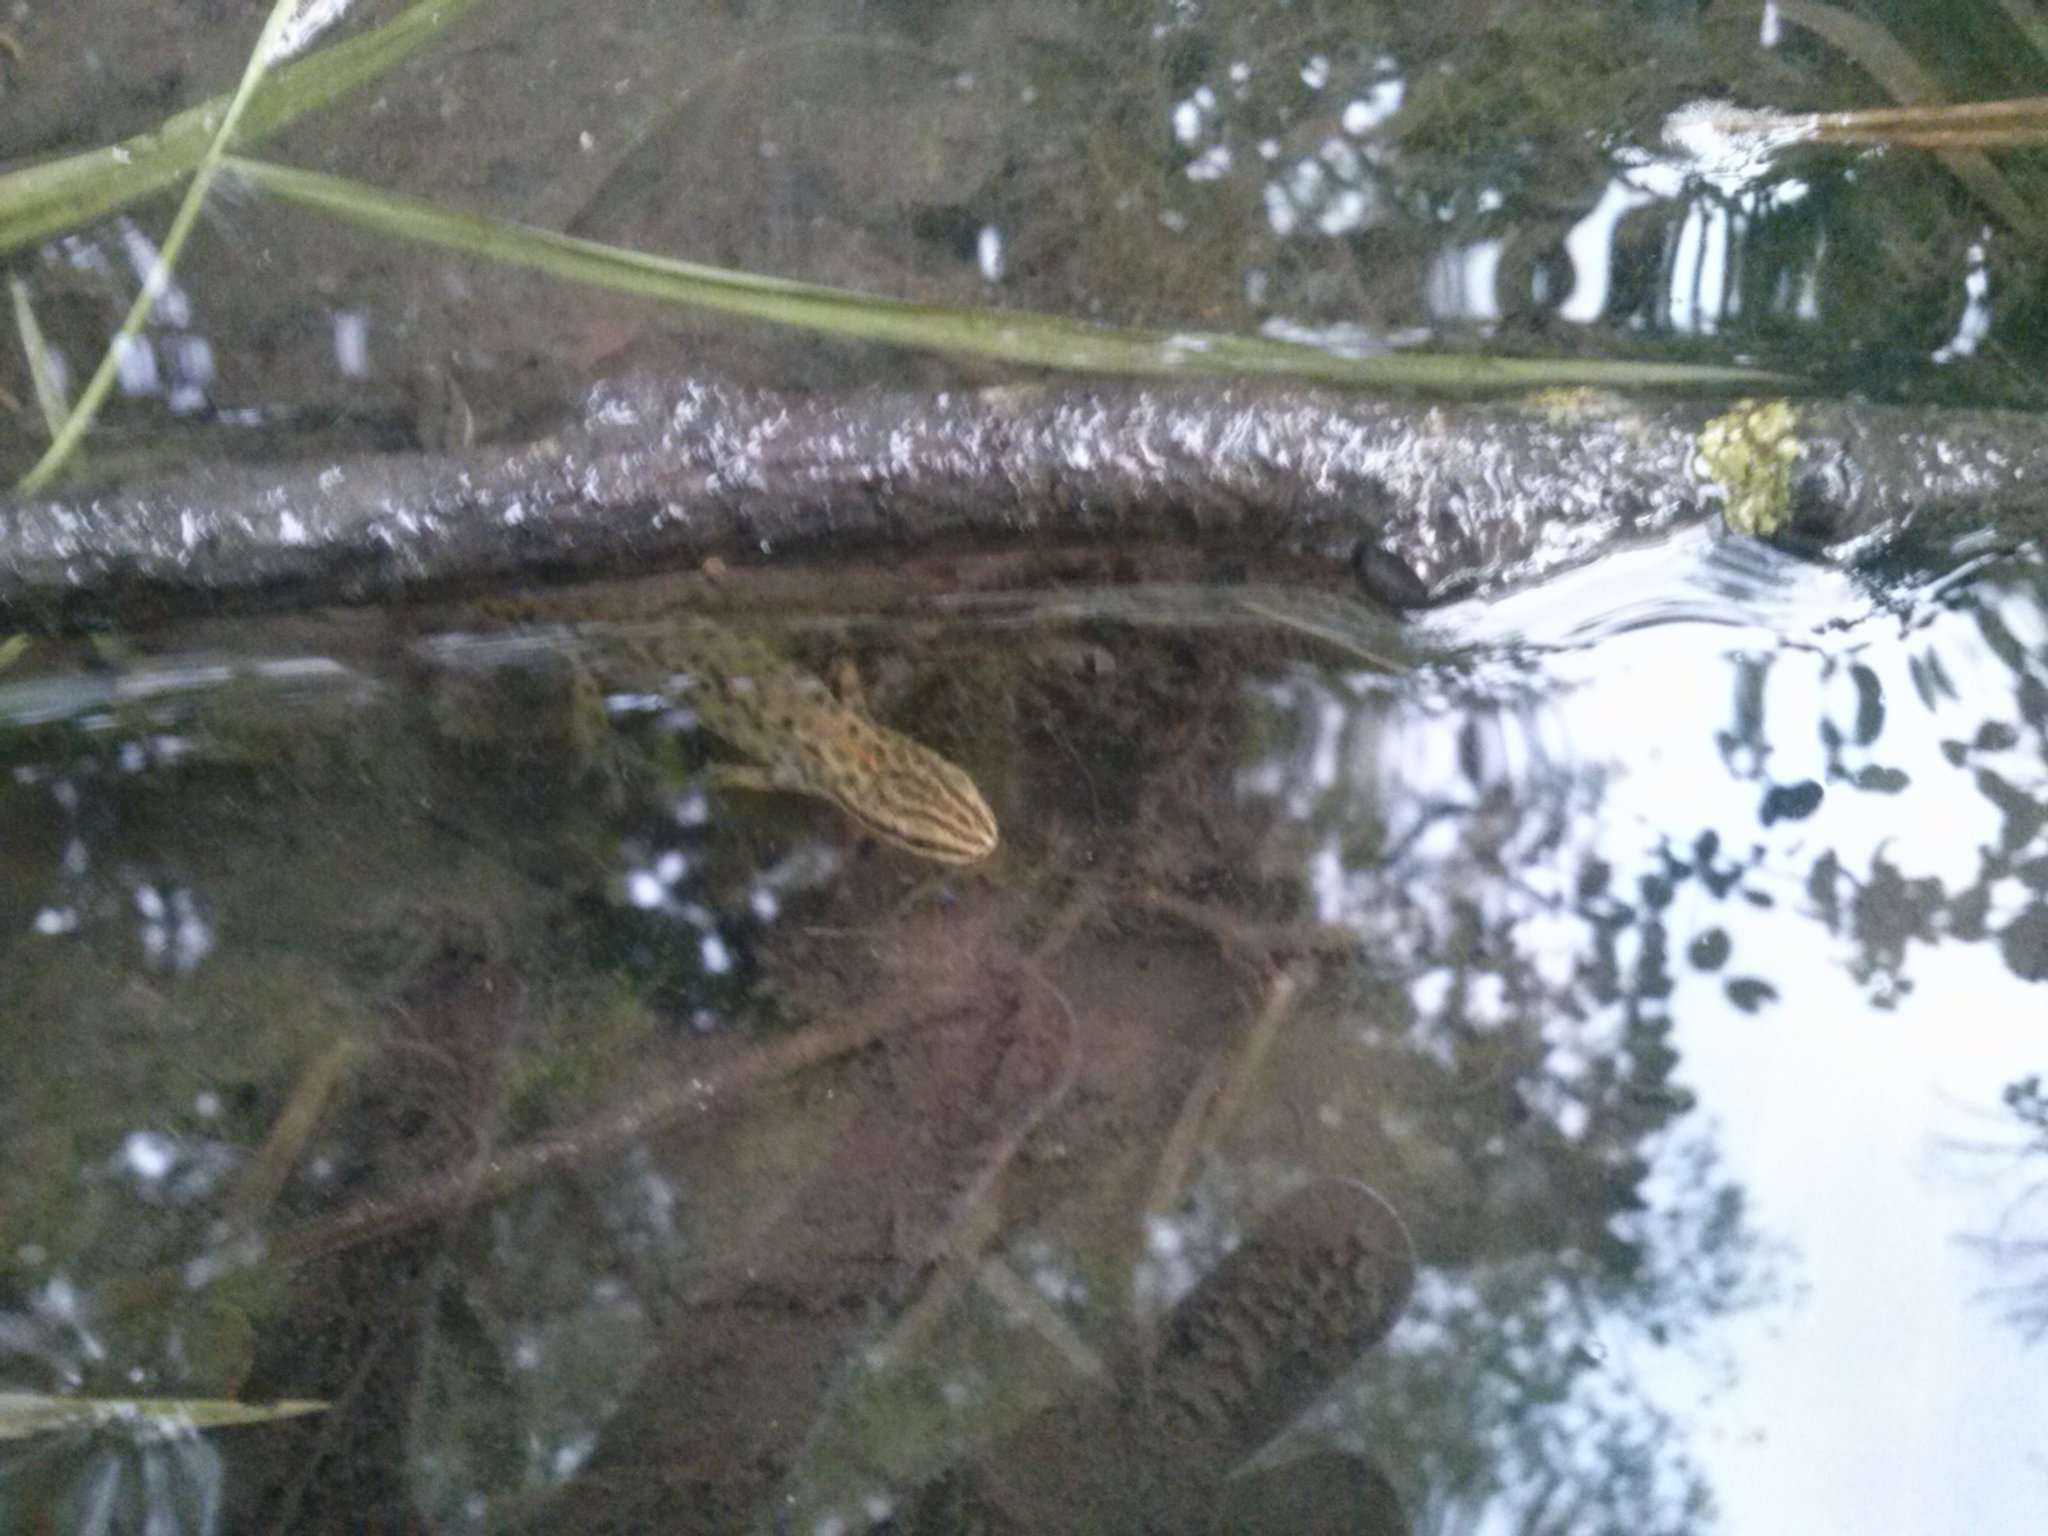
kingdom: Animalia
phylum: Chordata
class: Amphibia
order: Caudata
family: Salamandridae
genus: Lissotriton
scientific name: Lissotriton vulgaris
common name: Smooth newt
